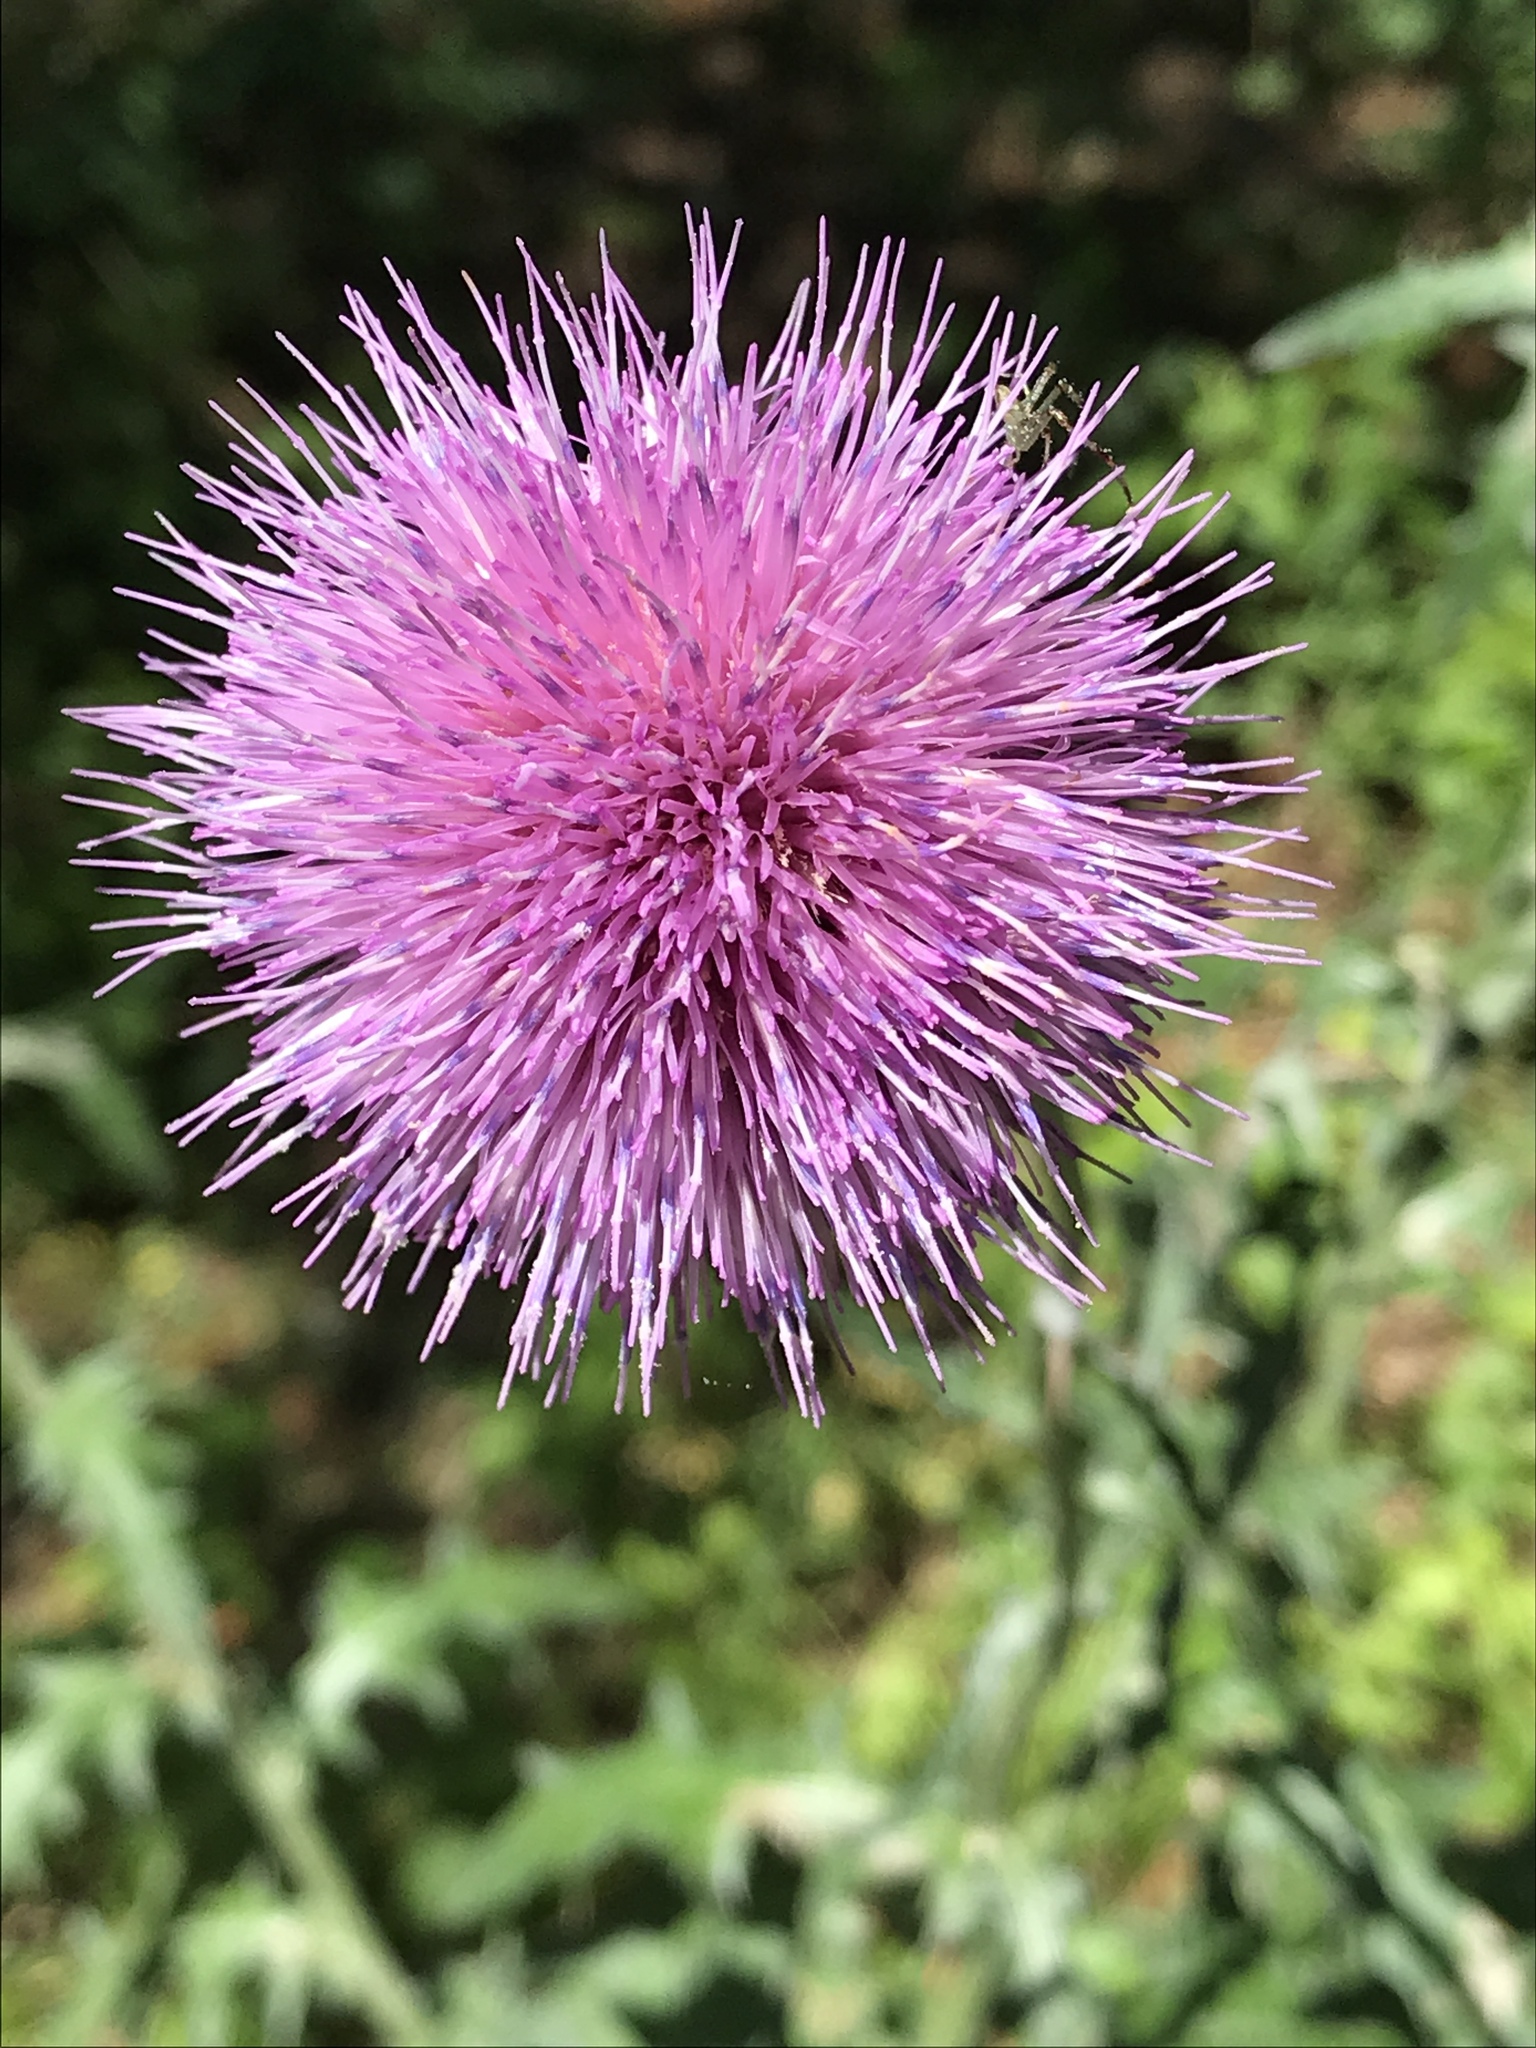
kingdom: Plantae
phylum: Tracheophyta
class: Magnoliopsida
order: Asterales
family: Asteraceae
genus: Cirsium
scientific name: Cirsium texanum
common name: Texas purple thistle
